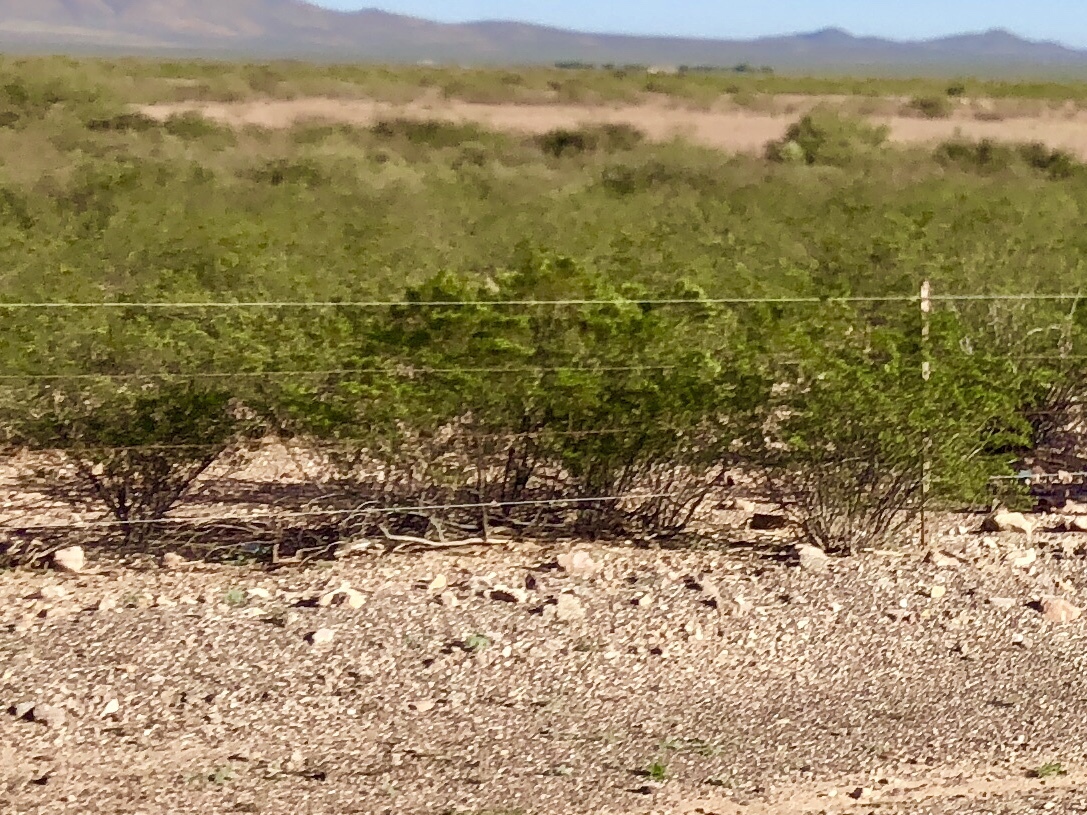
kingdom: Plantae
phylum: Tracheophyta
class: Magnoliopsida
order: Zygophyllales
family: Zygophyllaceae
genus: Larrea
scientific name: Larrea tridentata
